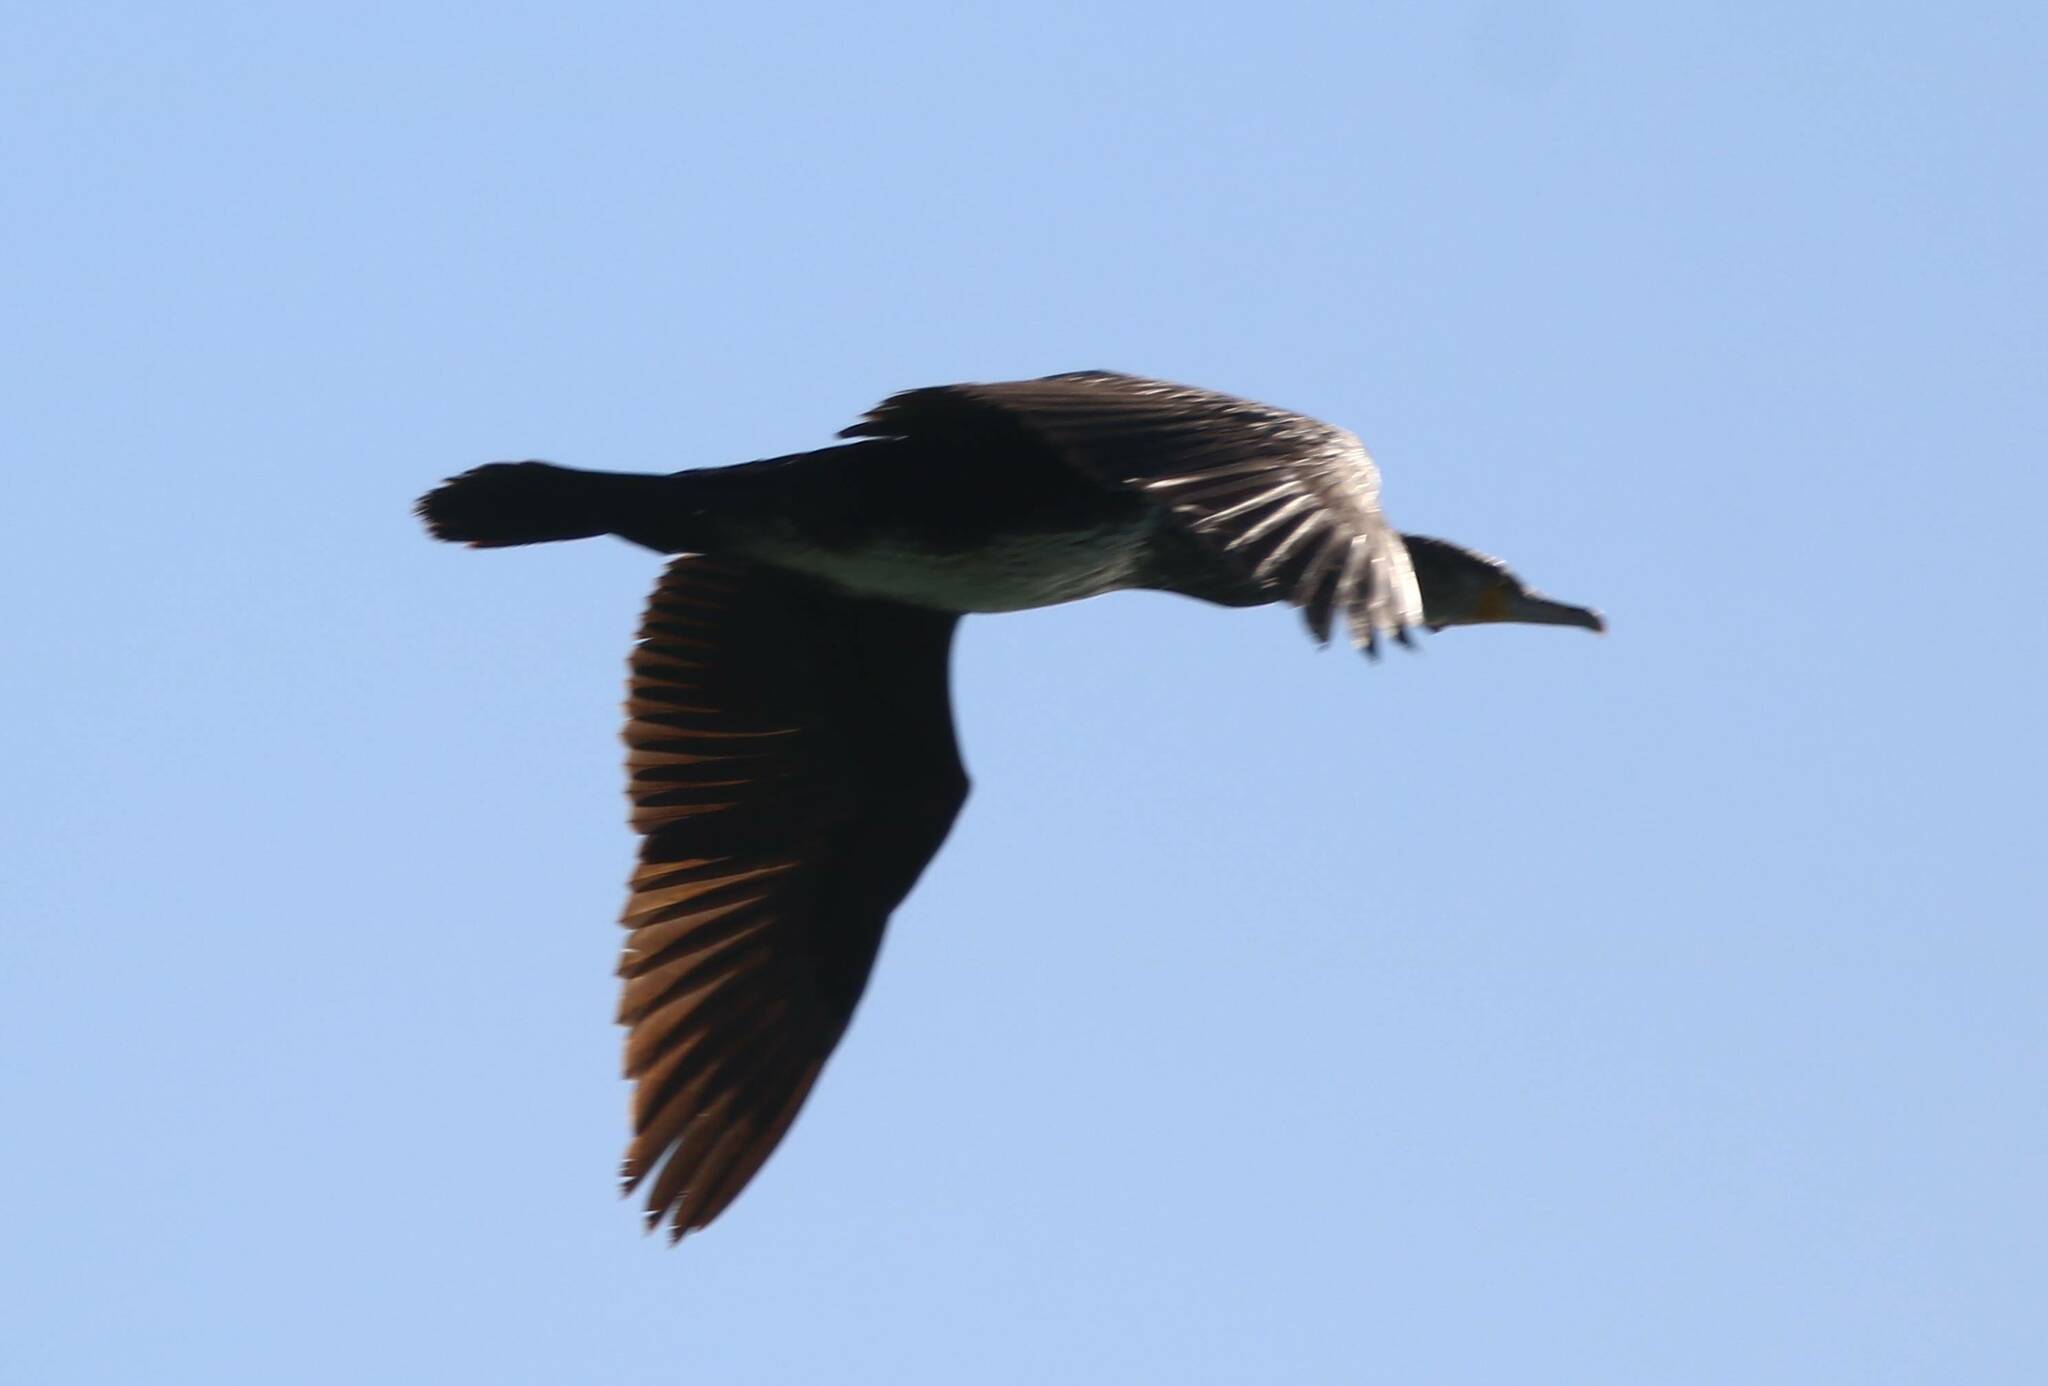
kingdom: Animalia
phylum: Chordata
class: Aves
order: Suliformes
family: Phalacrocoracidae
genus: Phalacrocorax
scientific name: Phalacrocorax carbo
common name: Great cormorant
